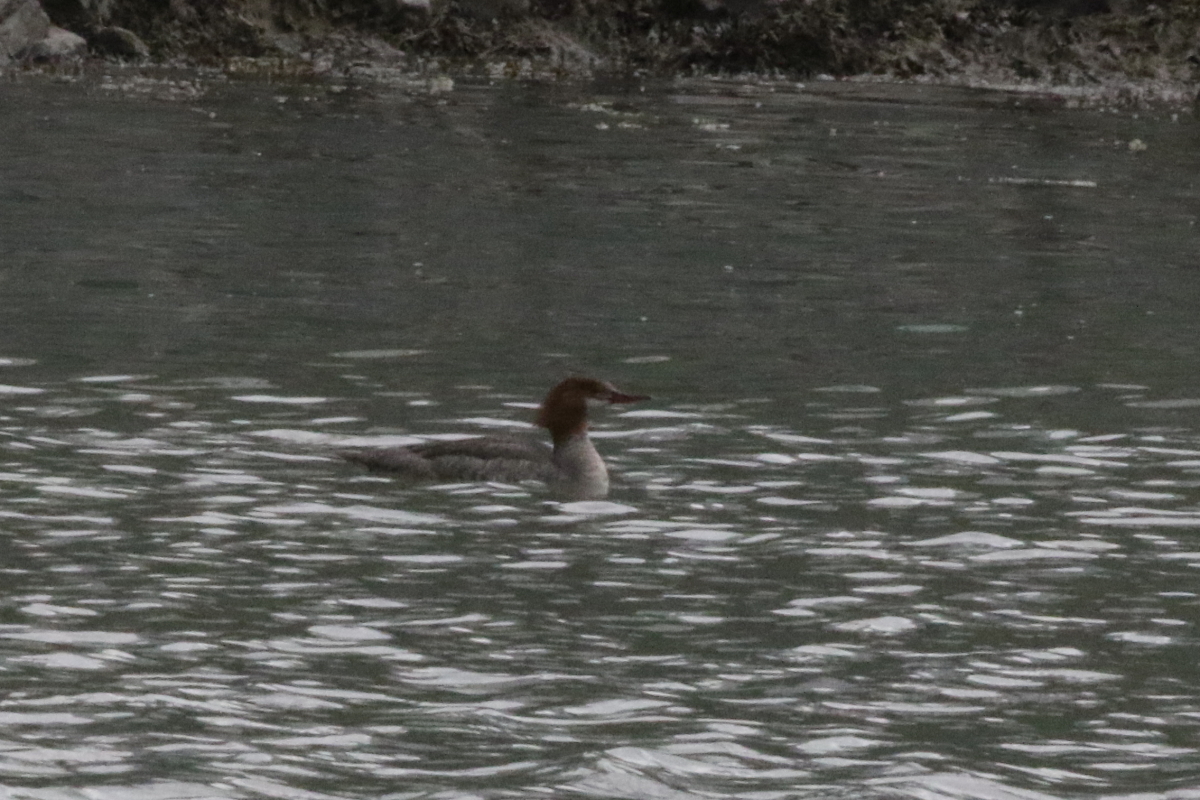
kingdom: Animalia
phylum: Chordata
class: Aves
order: Anseriformes
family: Anatidae
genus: Mergus
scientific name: Mergus merganser
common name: Common merganser
